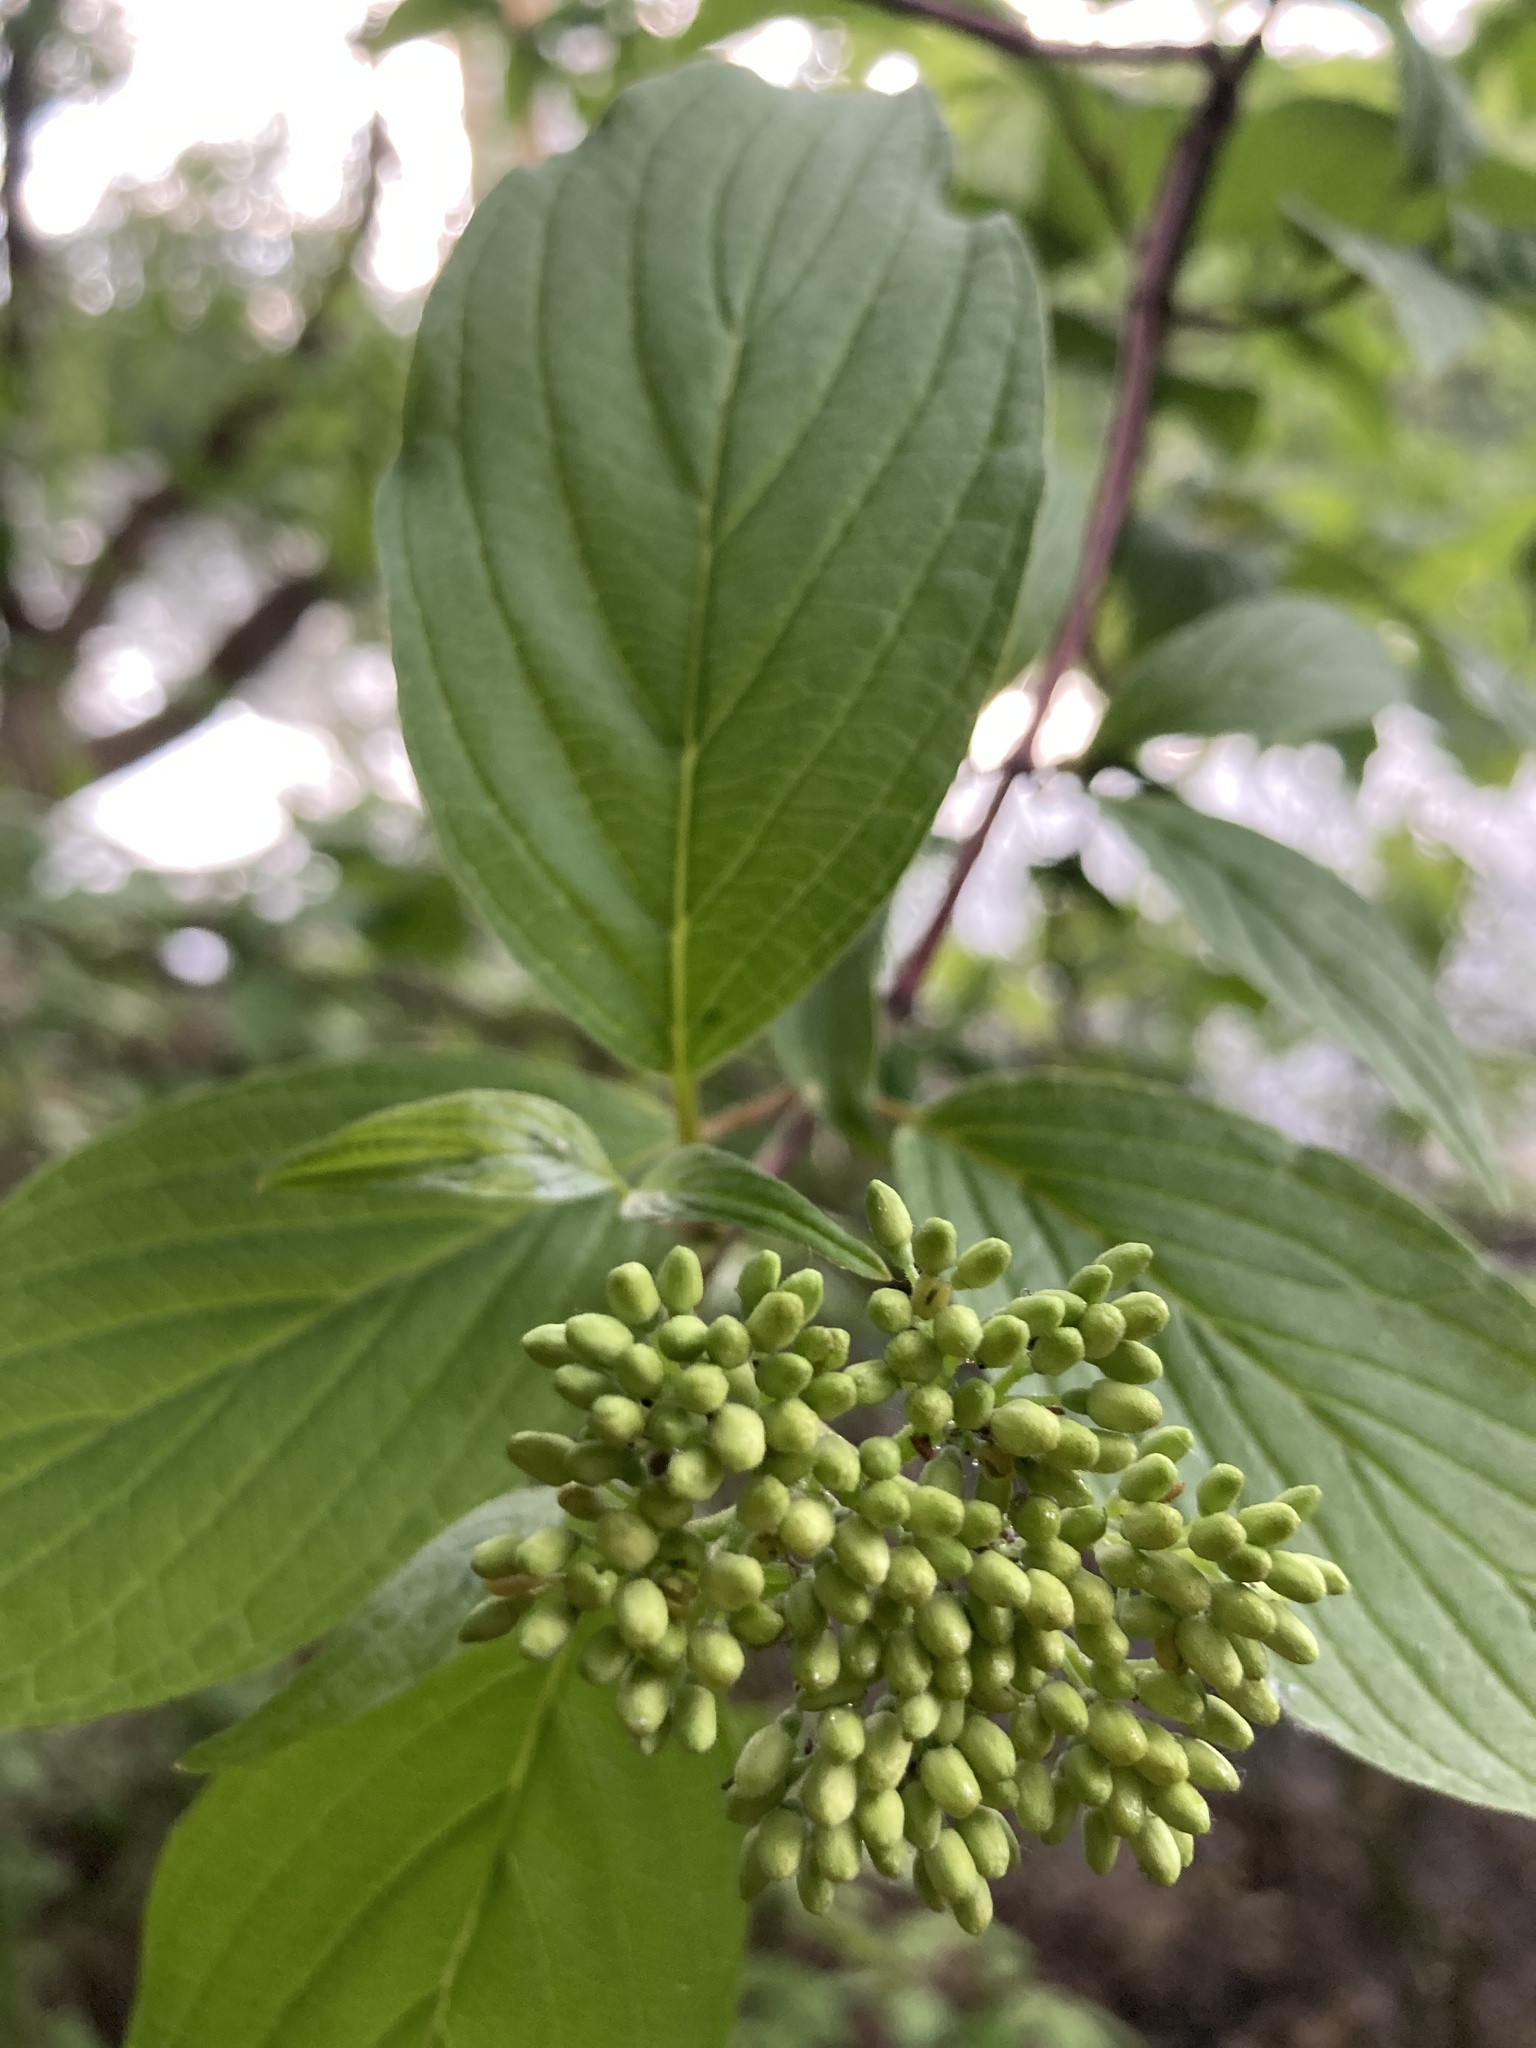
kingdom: Plantae
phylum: Tracheophyta
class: Magnoliopsida
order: Cornales
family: Cornaceae
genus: Cornus
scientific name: Cornus sericea
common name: Red-osier dogwood
